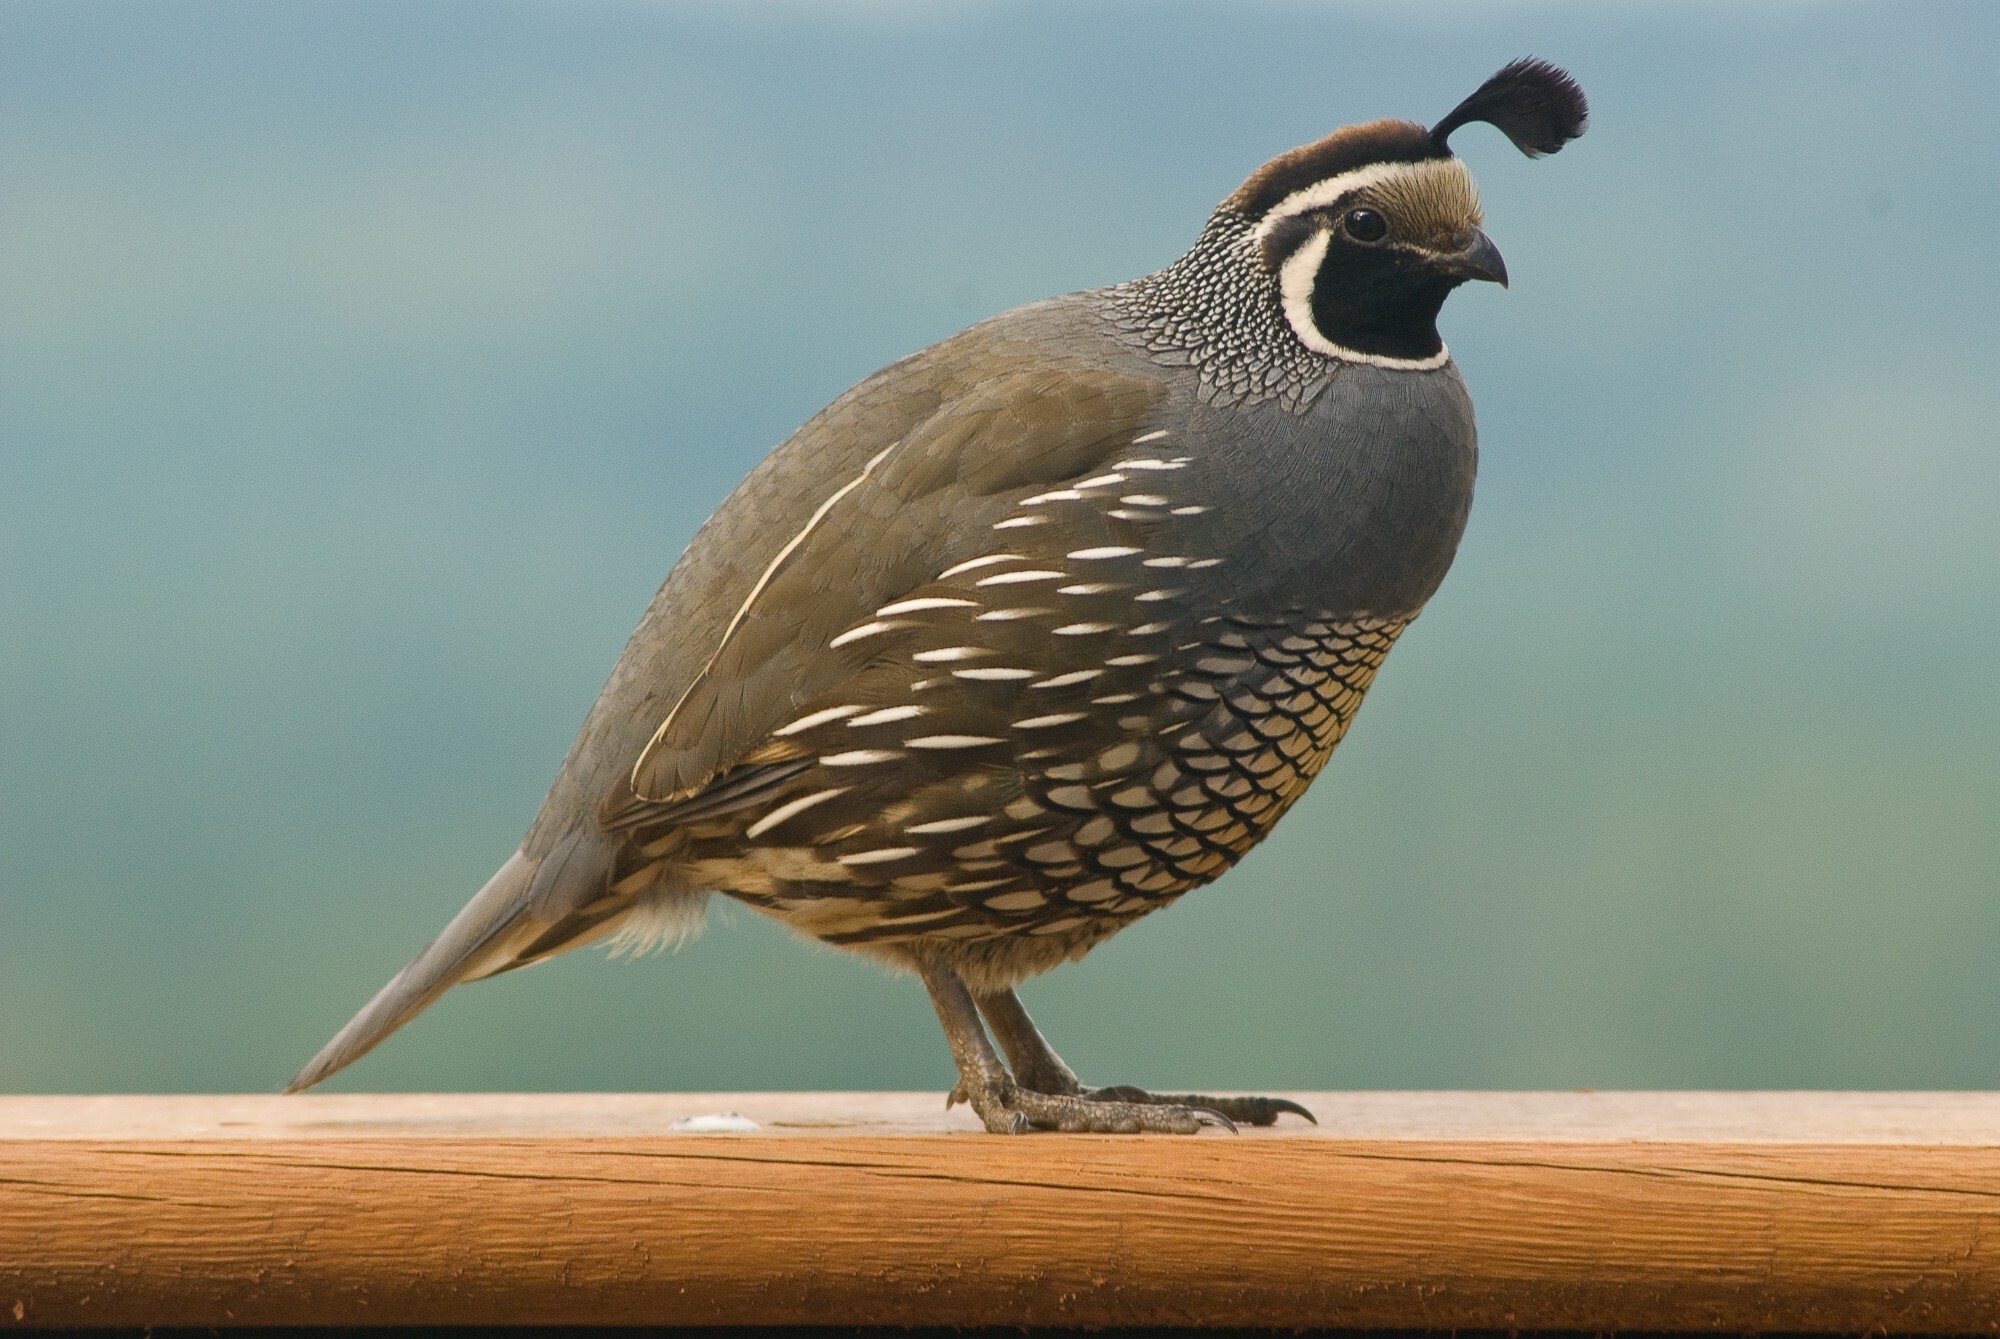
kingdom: Animalia
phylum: Chordata
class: Aves
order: Galliformes
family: Odontophoridae
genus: Callipepla
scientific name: Callipepla californica
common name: California quail
